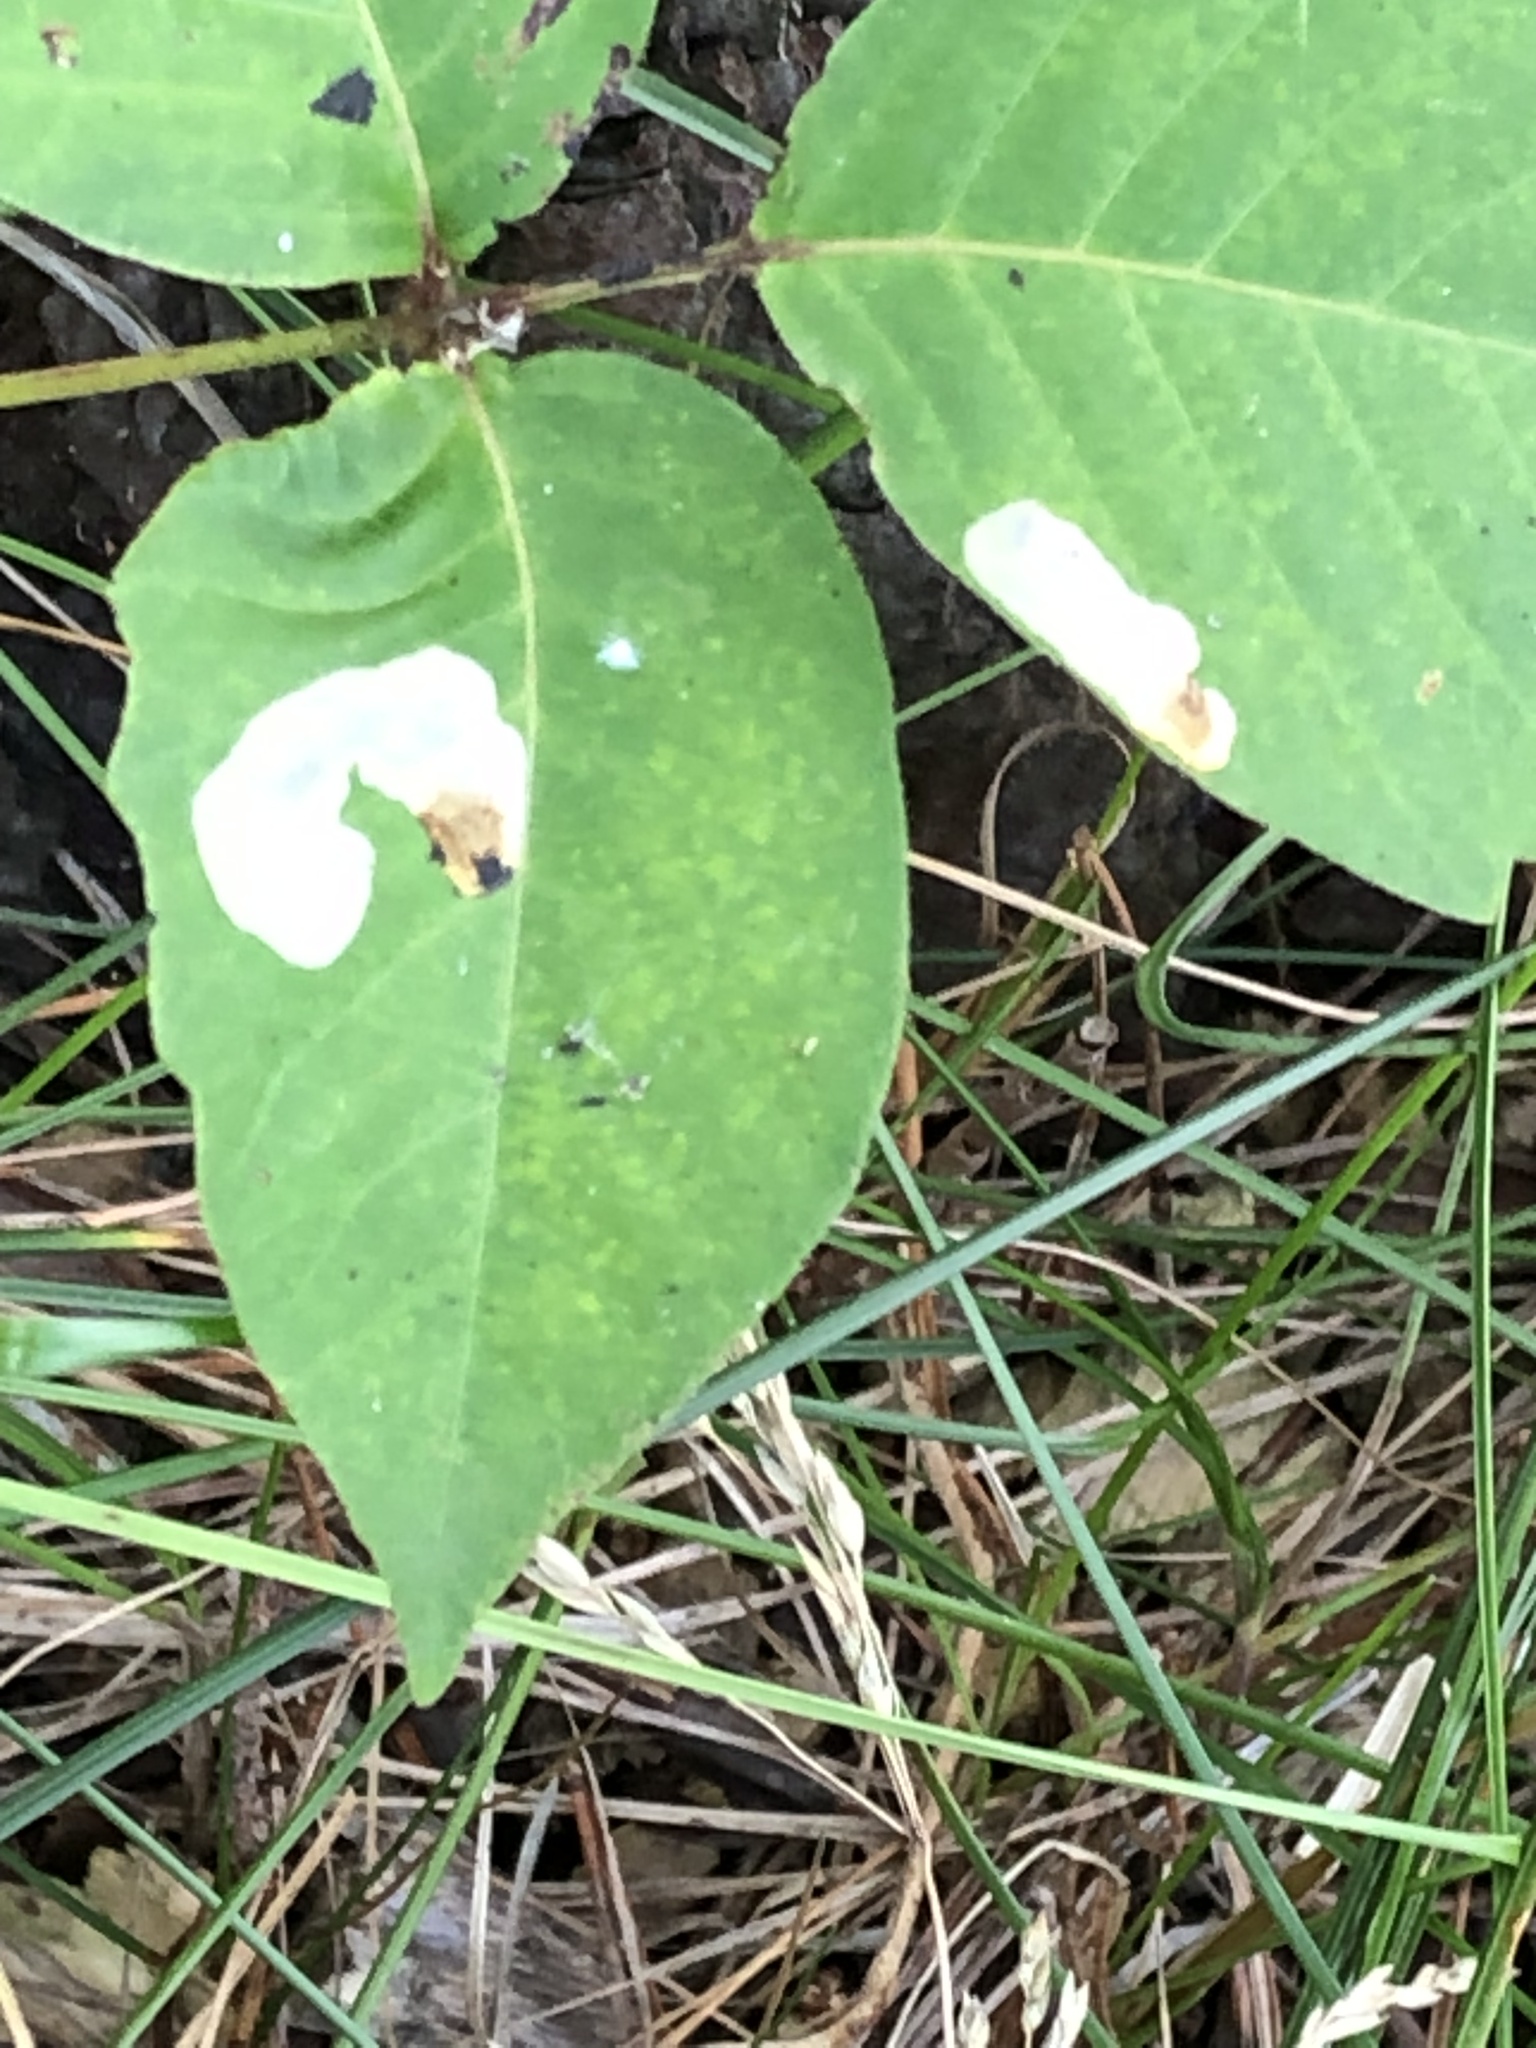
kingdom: Animalia
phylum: Arthropoda
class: Insecta
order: Lepidoptera
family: Gracillariidae
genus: Cameraria
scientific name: Cameraria guttifinitella
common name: Poison ivy leaf-miner moth
